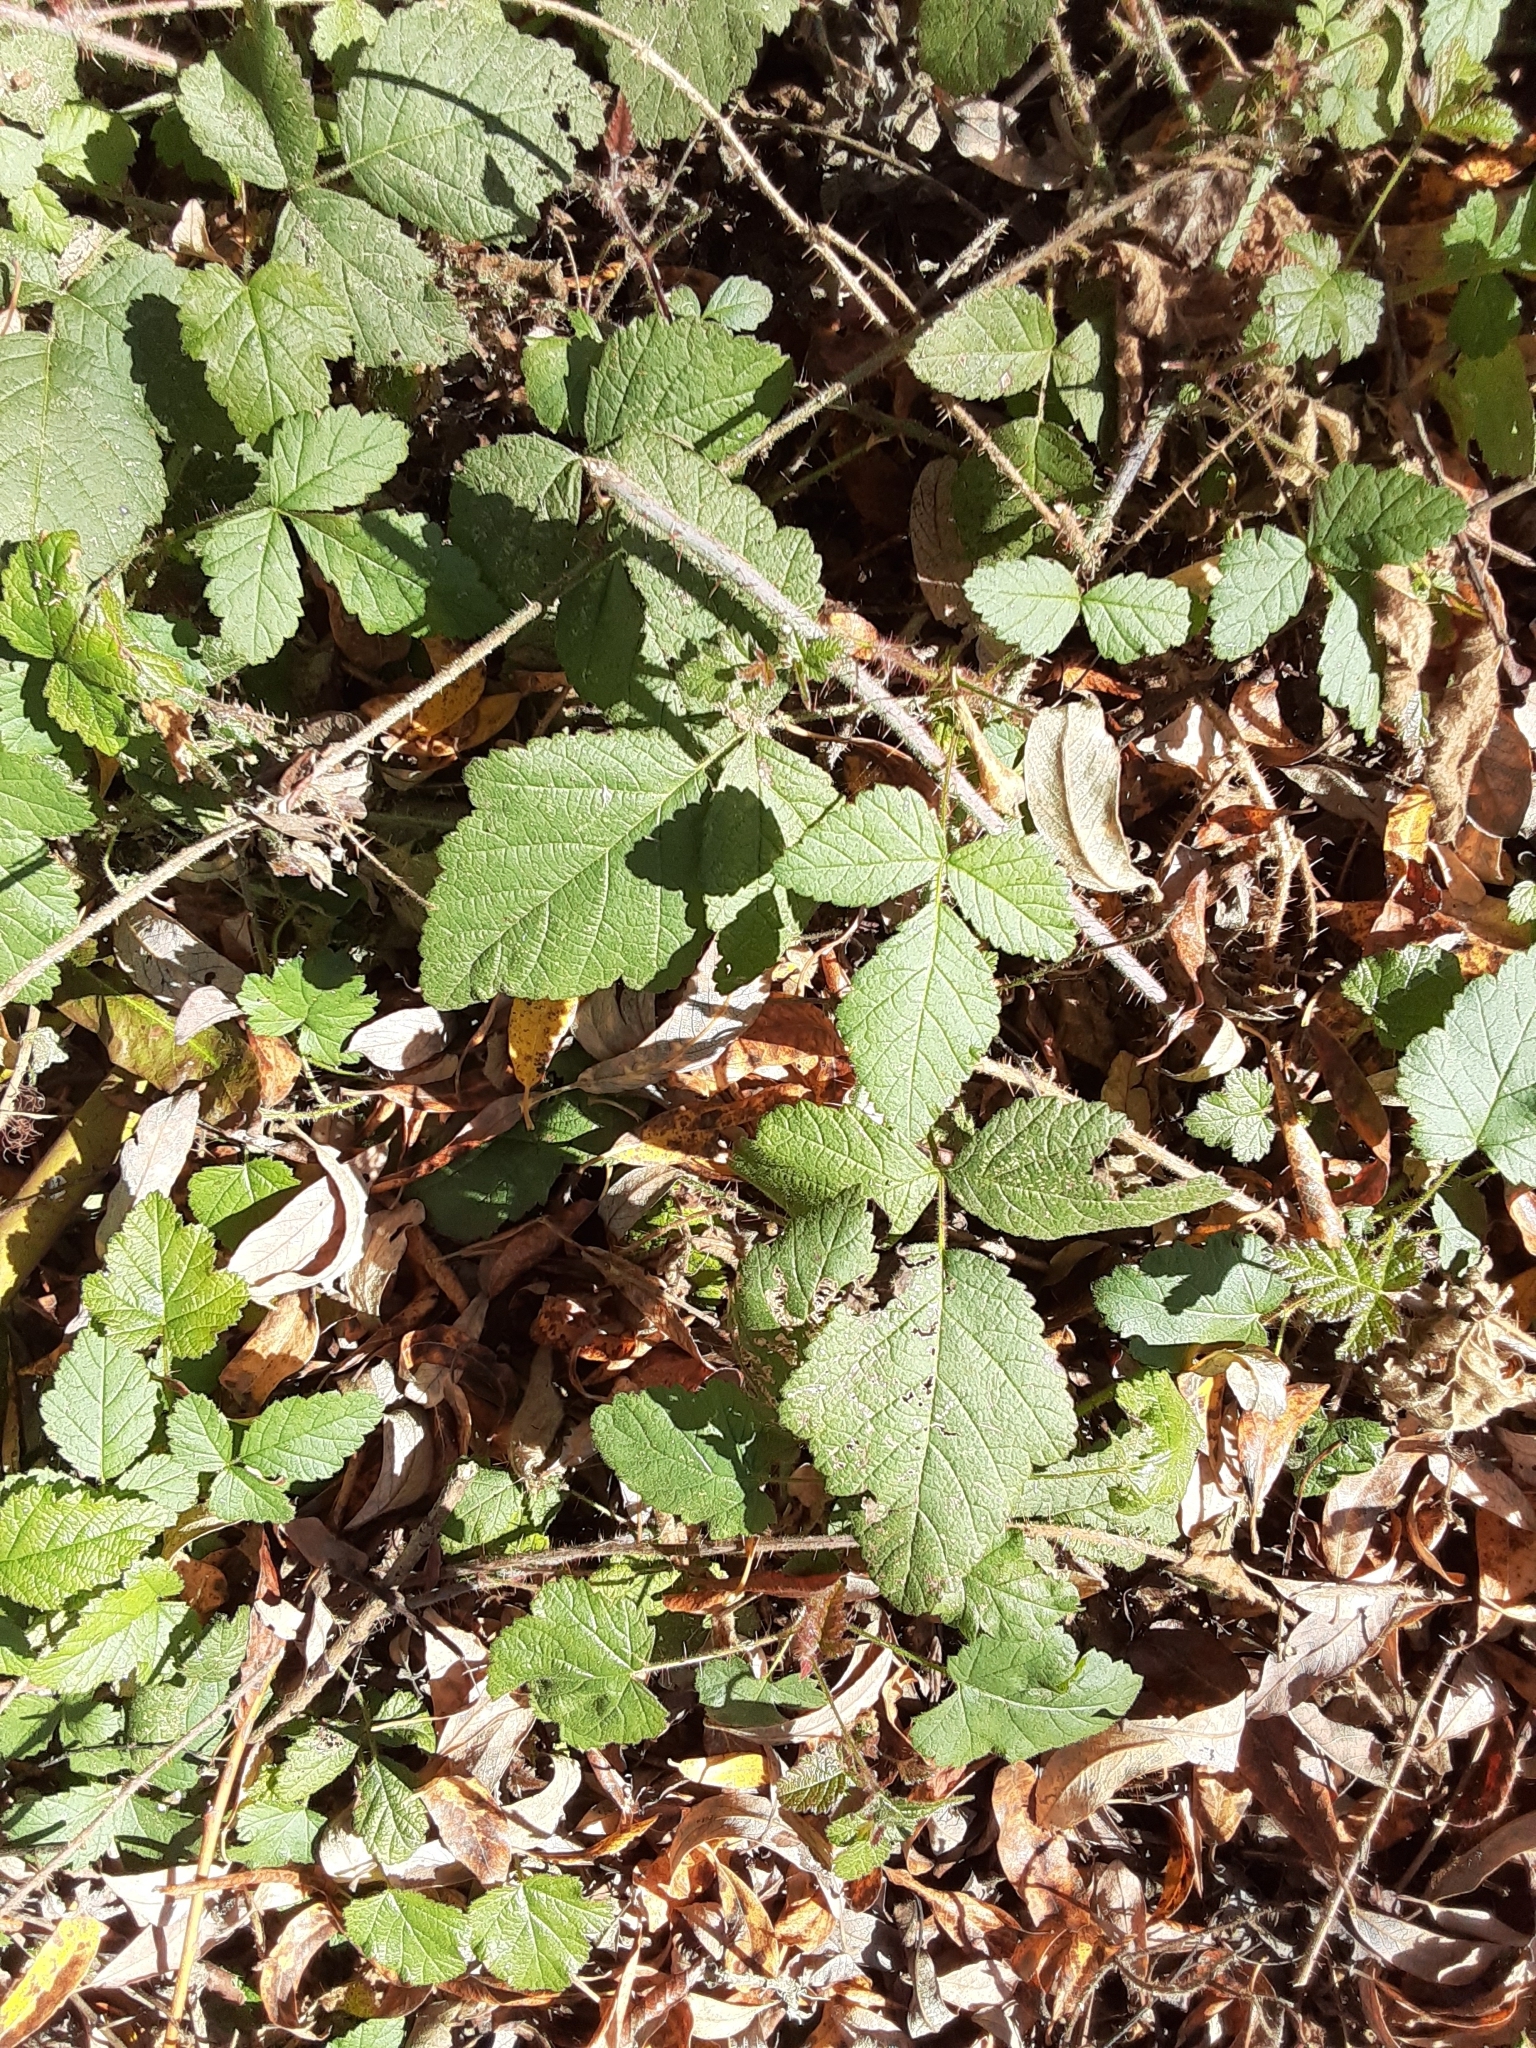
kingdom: Plantae
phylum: Tracheophyta
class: Magnoliopsida
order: Rosales
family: Rosaceae
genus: Rubus
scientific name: Rubus ursinus
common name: Pacific blackberry
